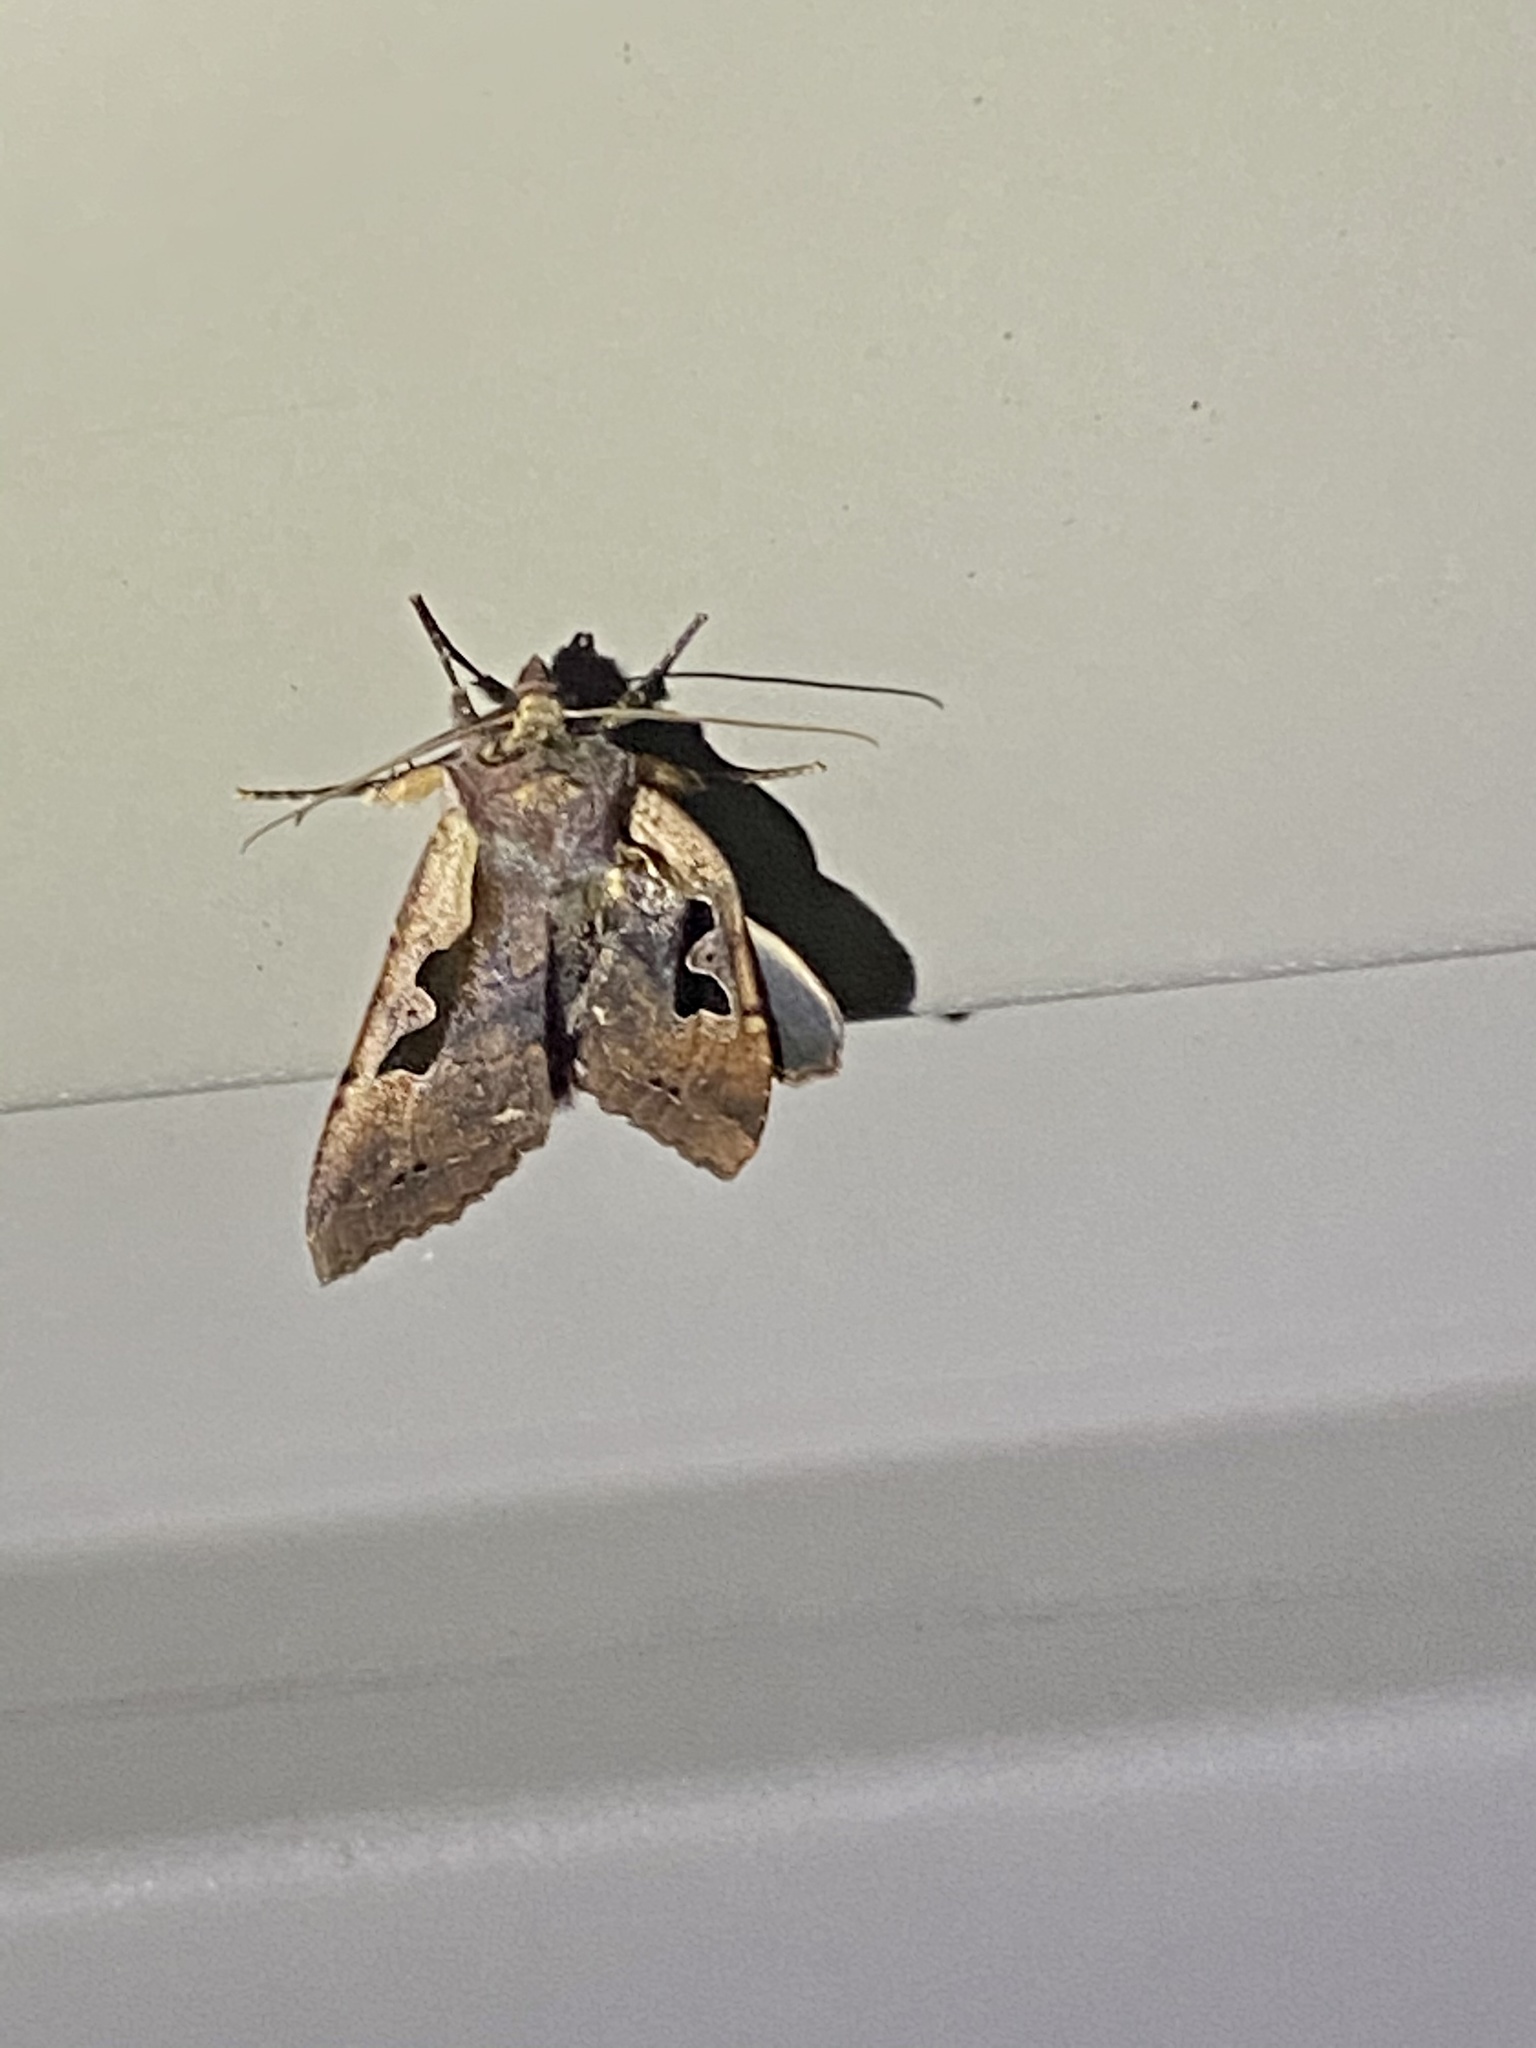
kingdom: Animalia
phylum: Arthropoda
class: Insecta
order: Lepidoptera
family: Noctuidae
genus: Sugitania
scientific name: Sugitania
